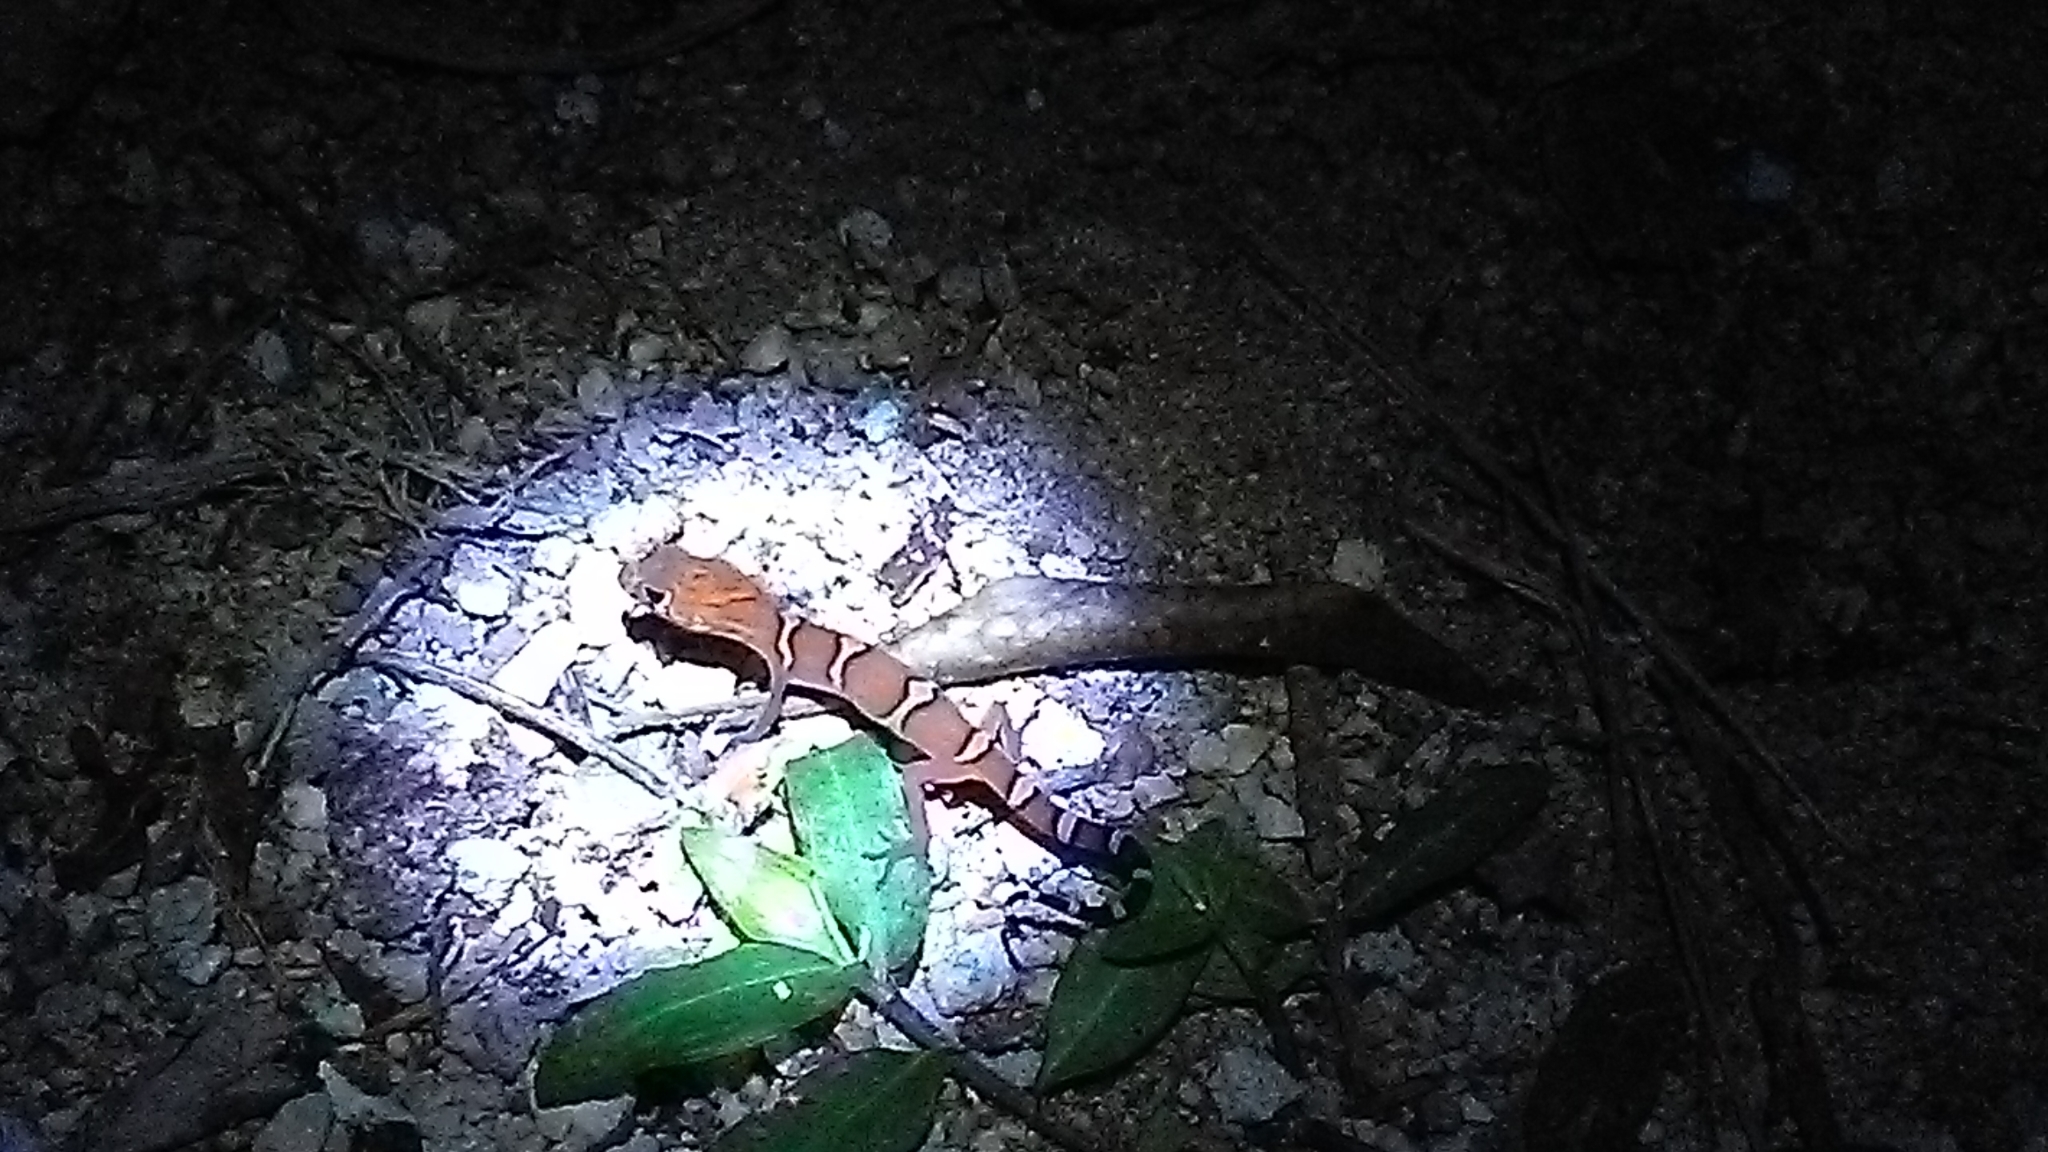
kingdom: Animalia
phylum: Chordata
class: Squamata
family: Eublepharidae
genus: Coleonyx
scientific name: Coleonyx elegans
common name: Yucatan banded gecko
